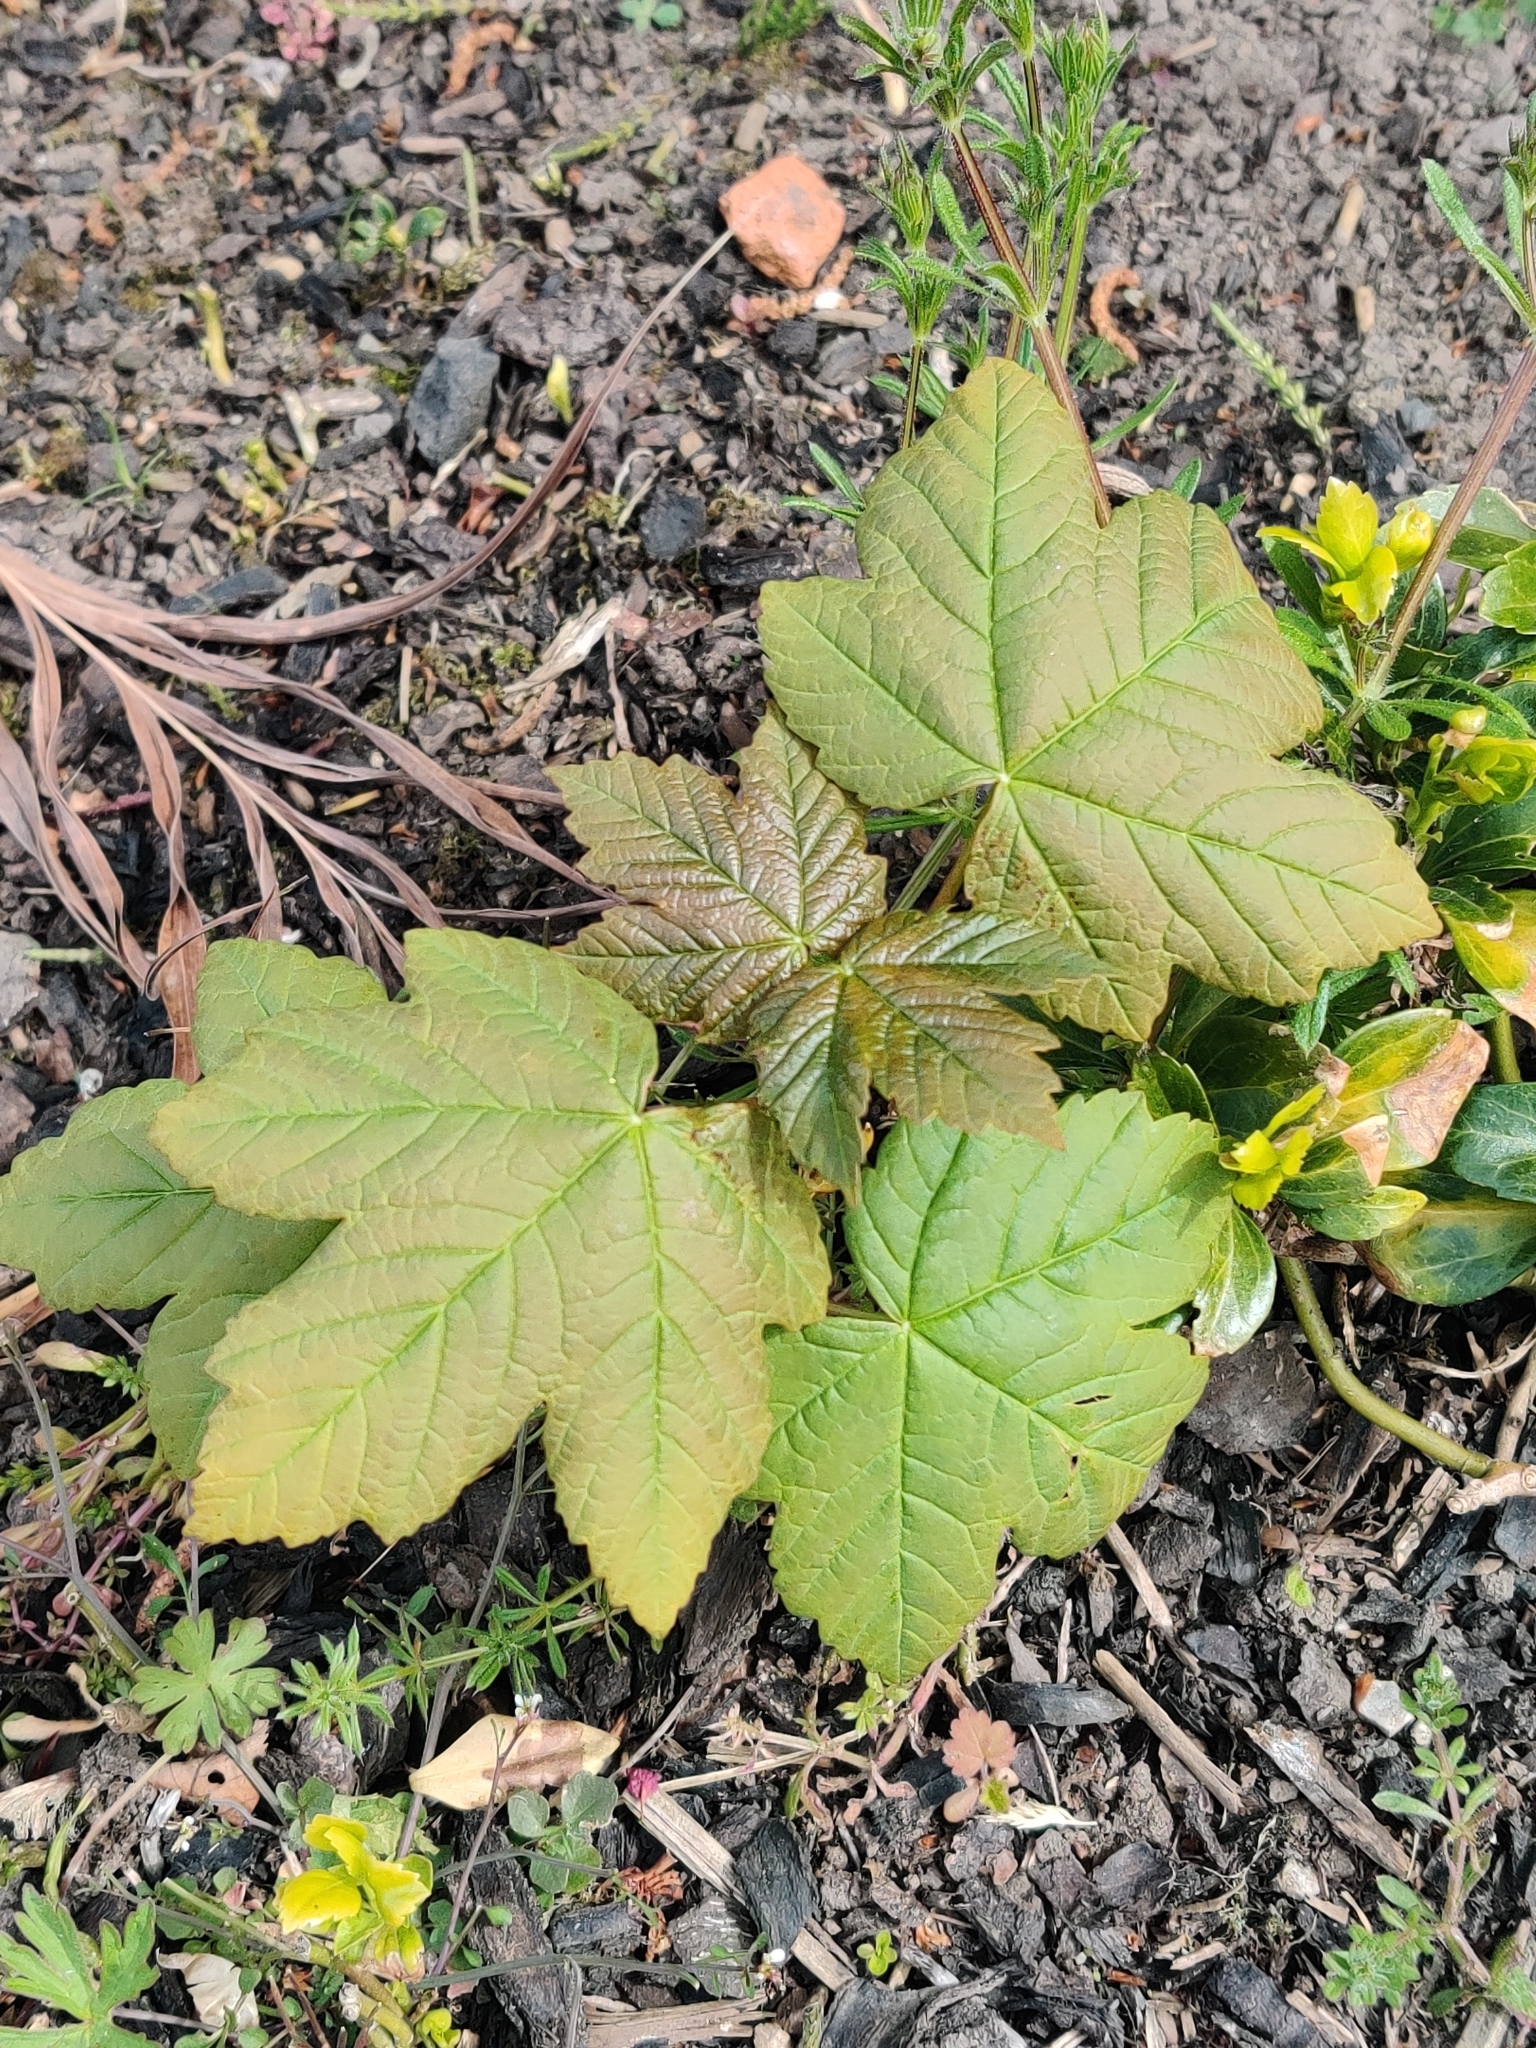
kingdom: Plantae
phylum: Tracheophyta
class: Magnoliopsida
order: Sapindales
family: Sapindaceae
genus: Acer
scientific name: Acer pseudoplatanus
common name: Sycamore
